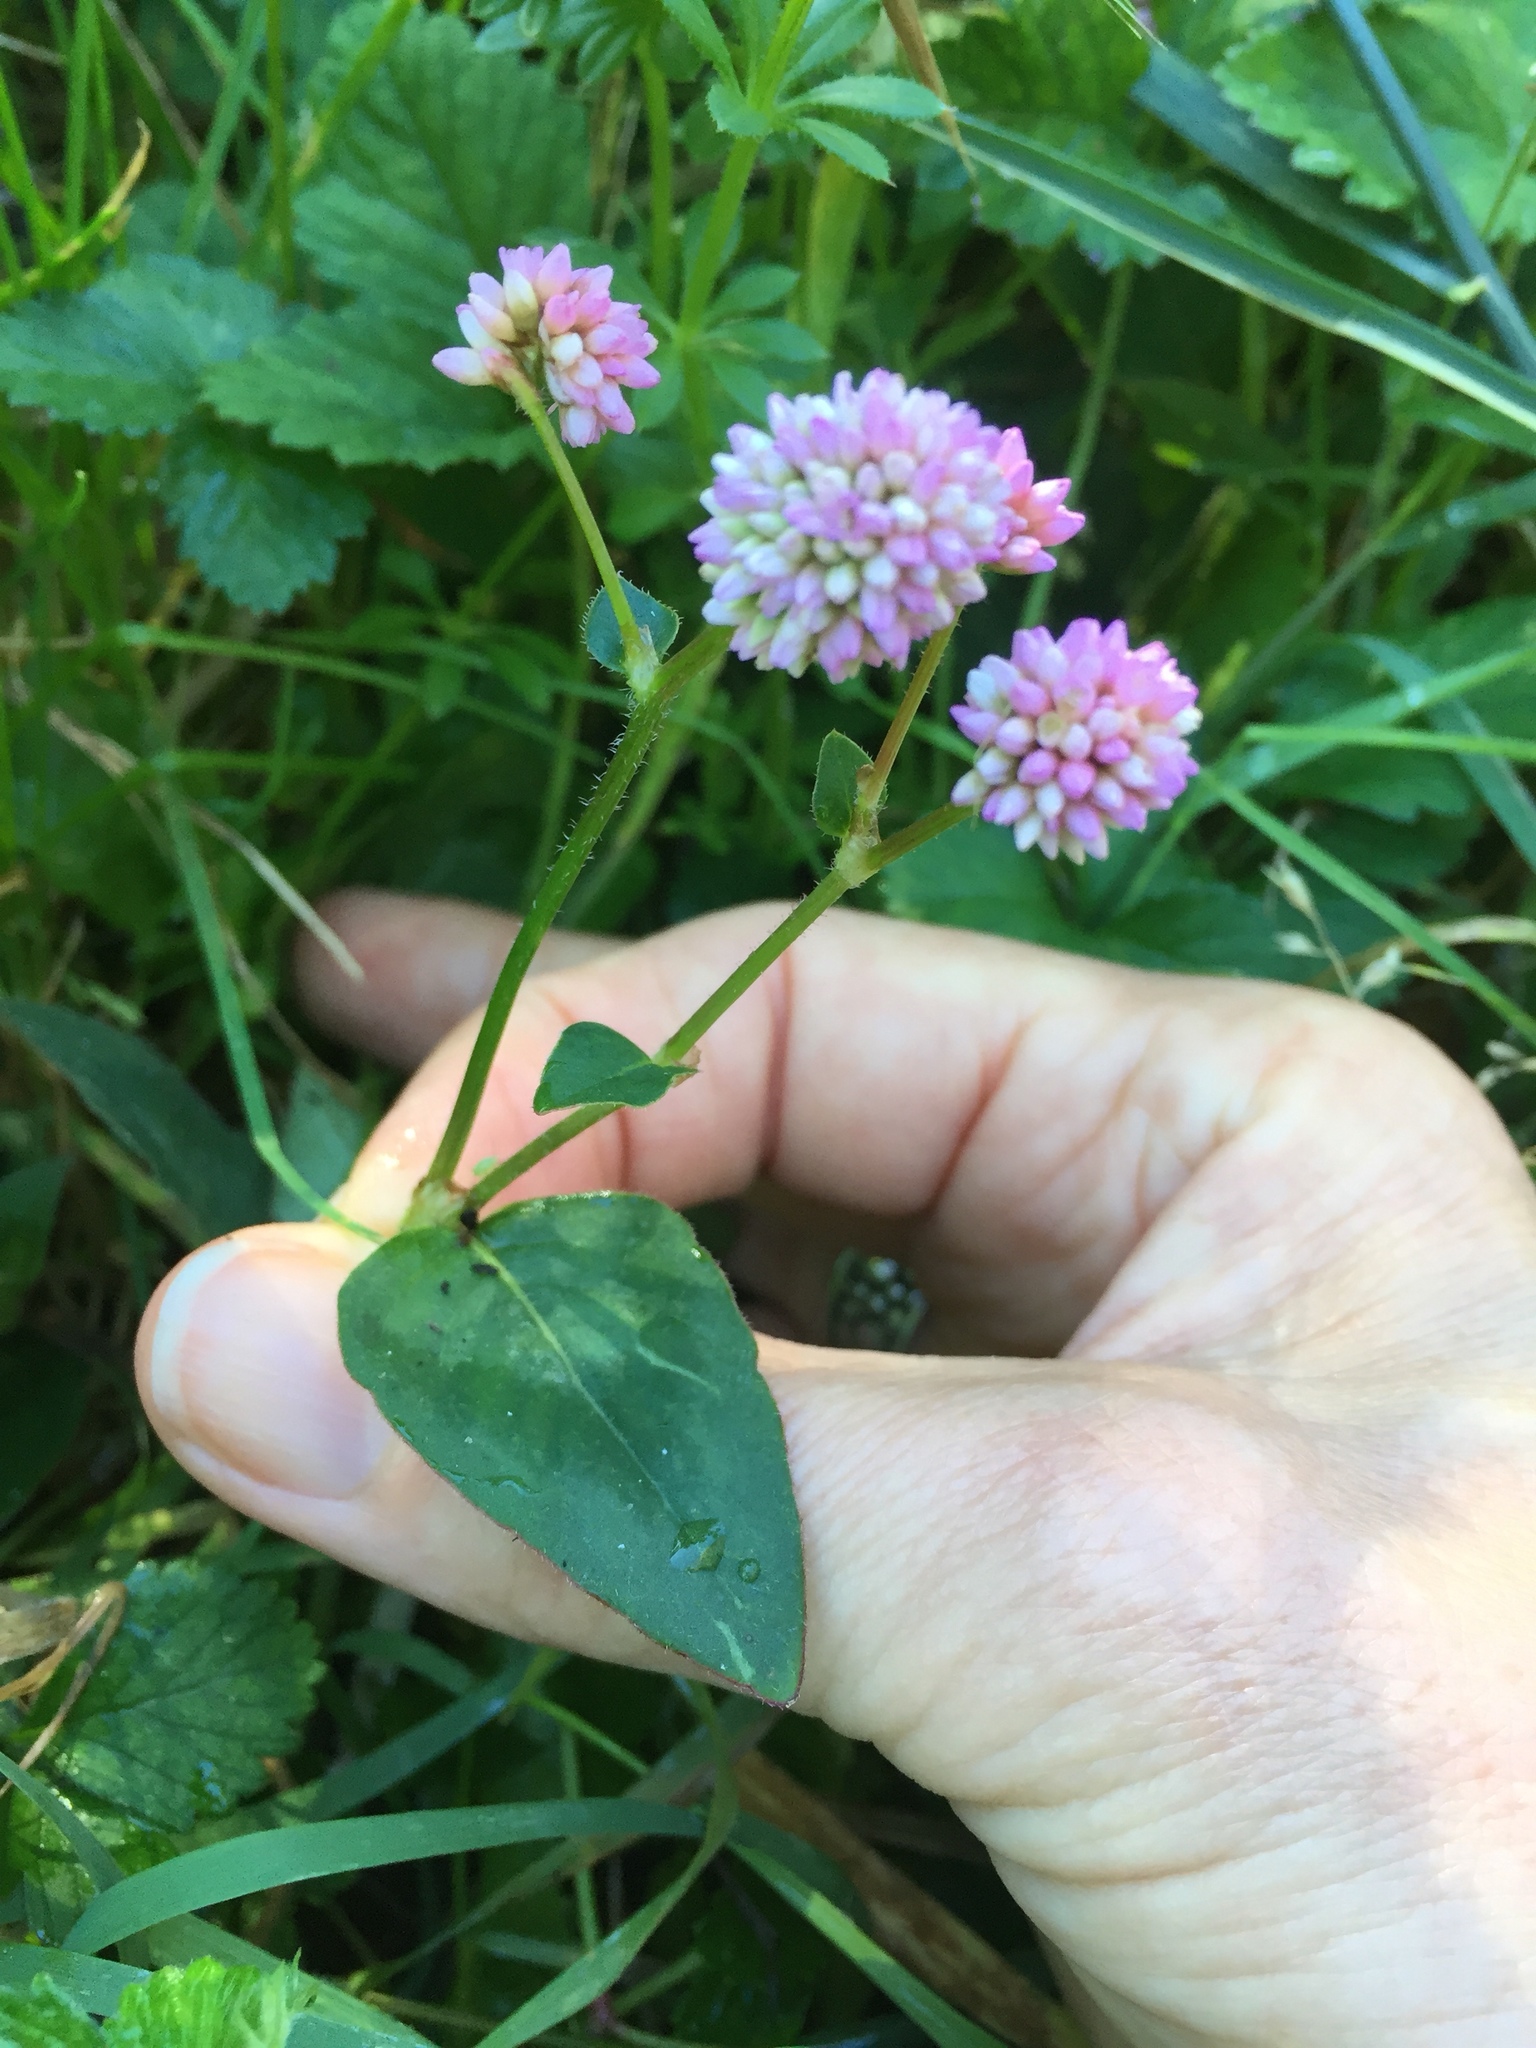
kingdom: Plantae
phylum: Tracheophyta
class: Magnoliopsida
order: Caryophyllales
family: Polygonaceae
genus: Persicaria
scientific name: Persicaria capitata
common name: Pinkhead smartweed
